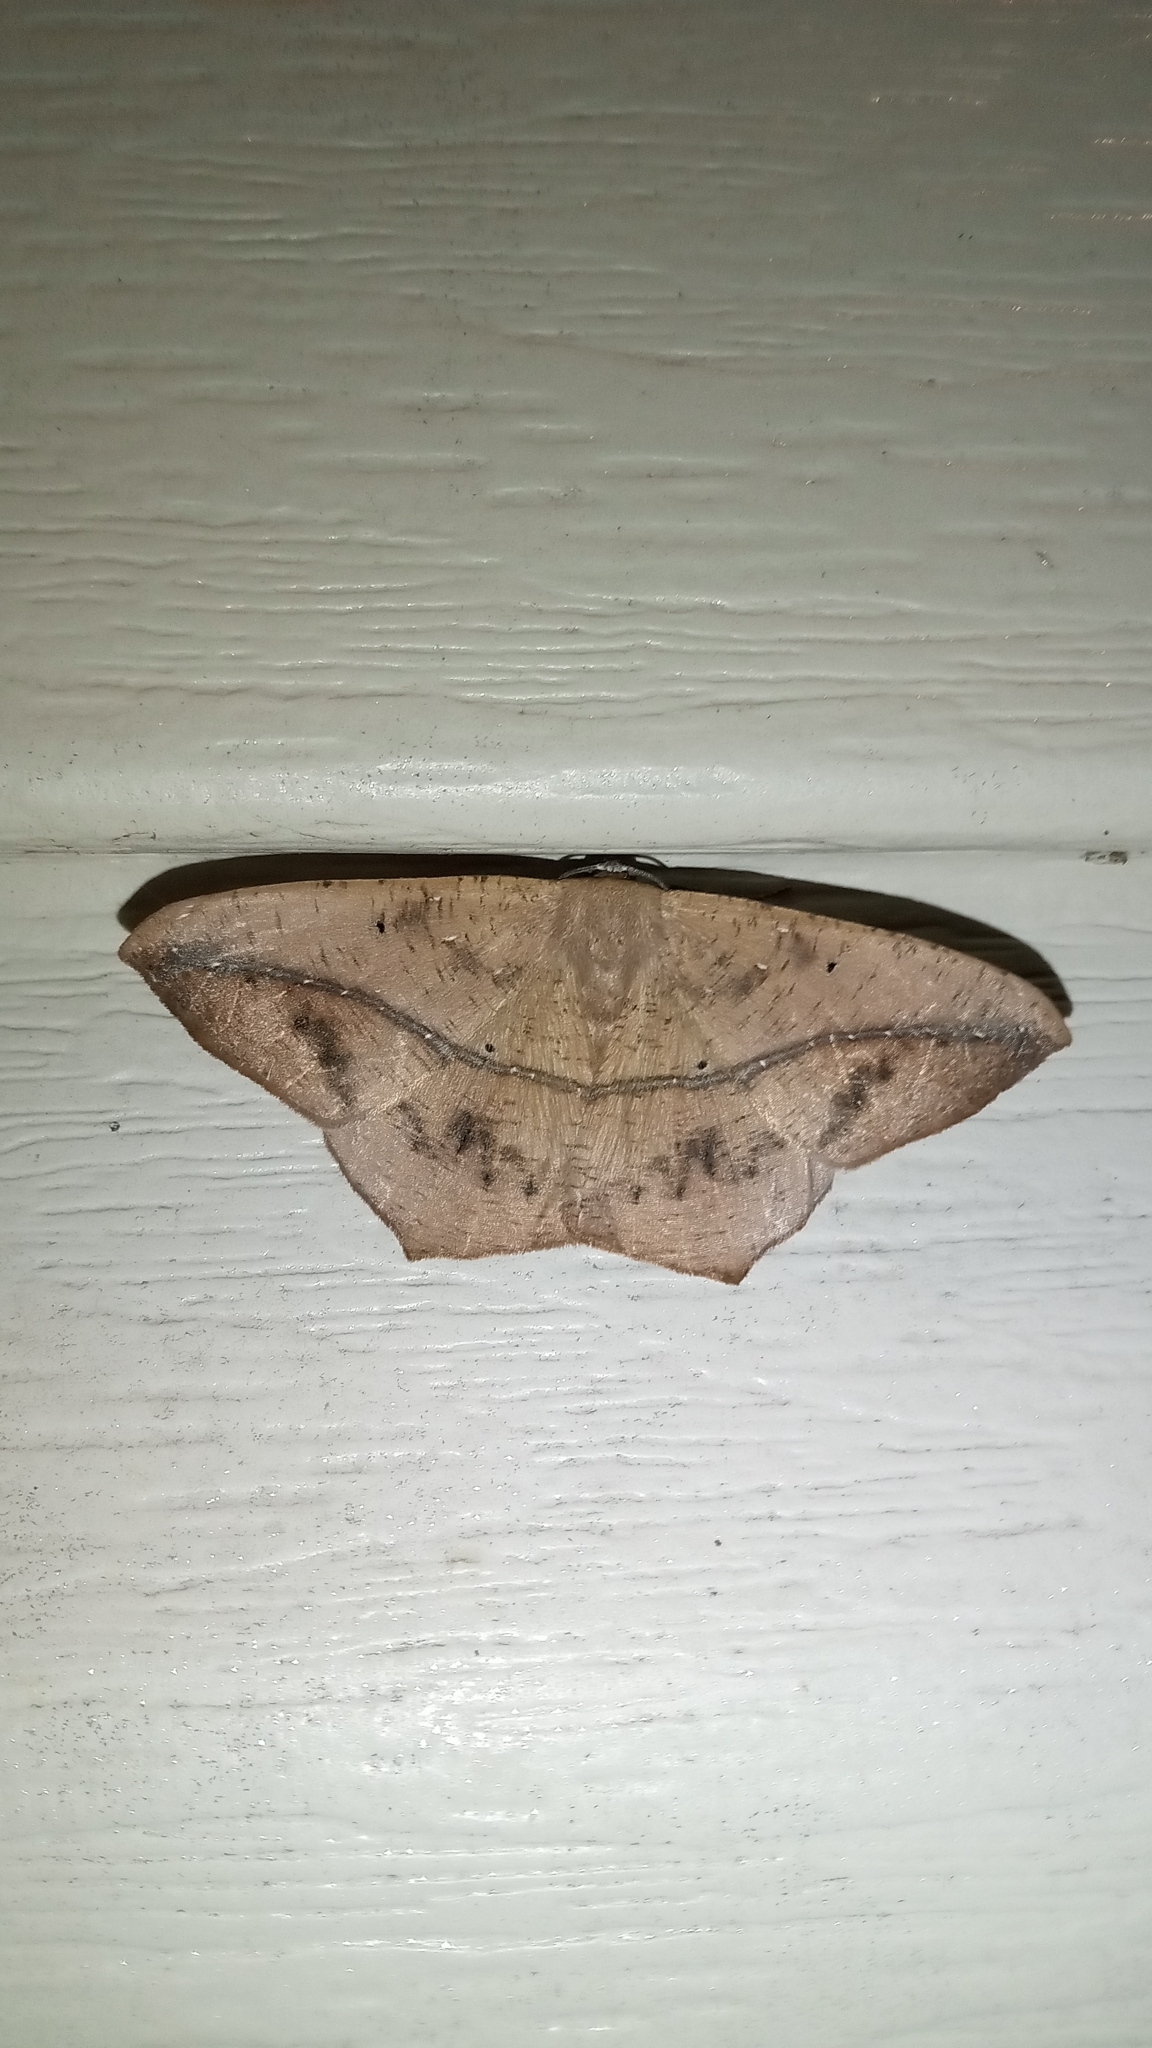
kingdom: Animalia
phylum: Arthropoda
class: Insecta
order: Lepidoptera
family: Geometridae
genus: Prochoerodes
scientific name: Prochoerodes lineola
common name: Large maple spanworm
